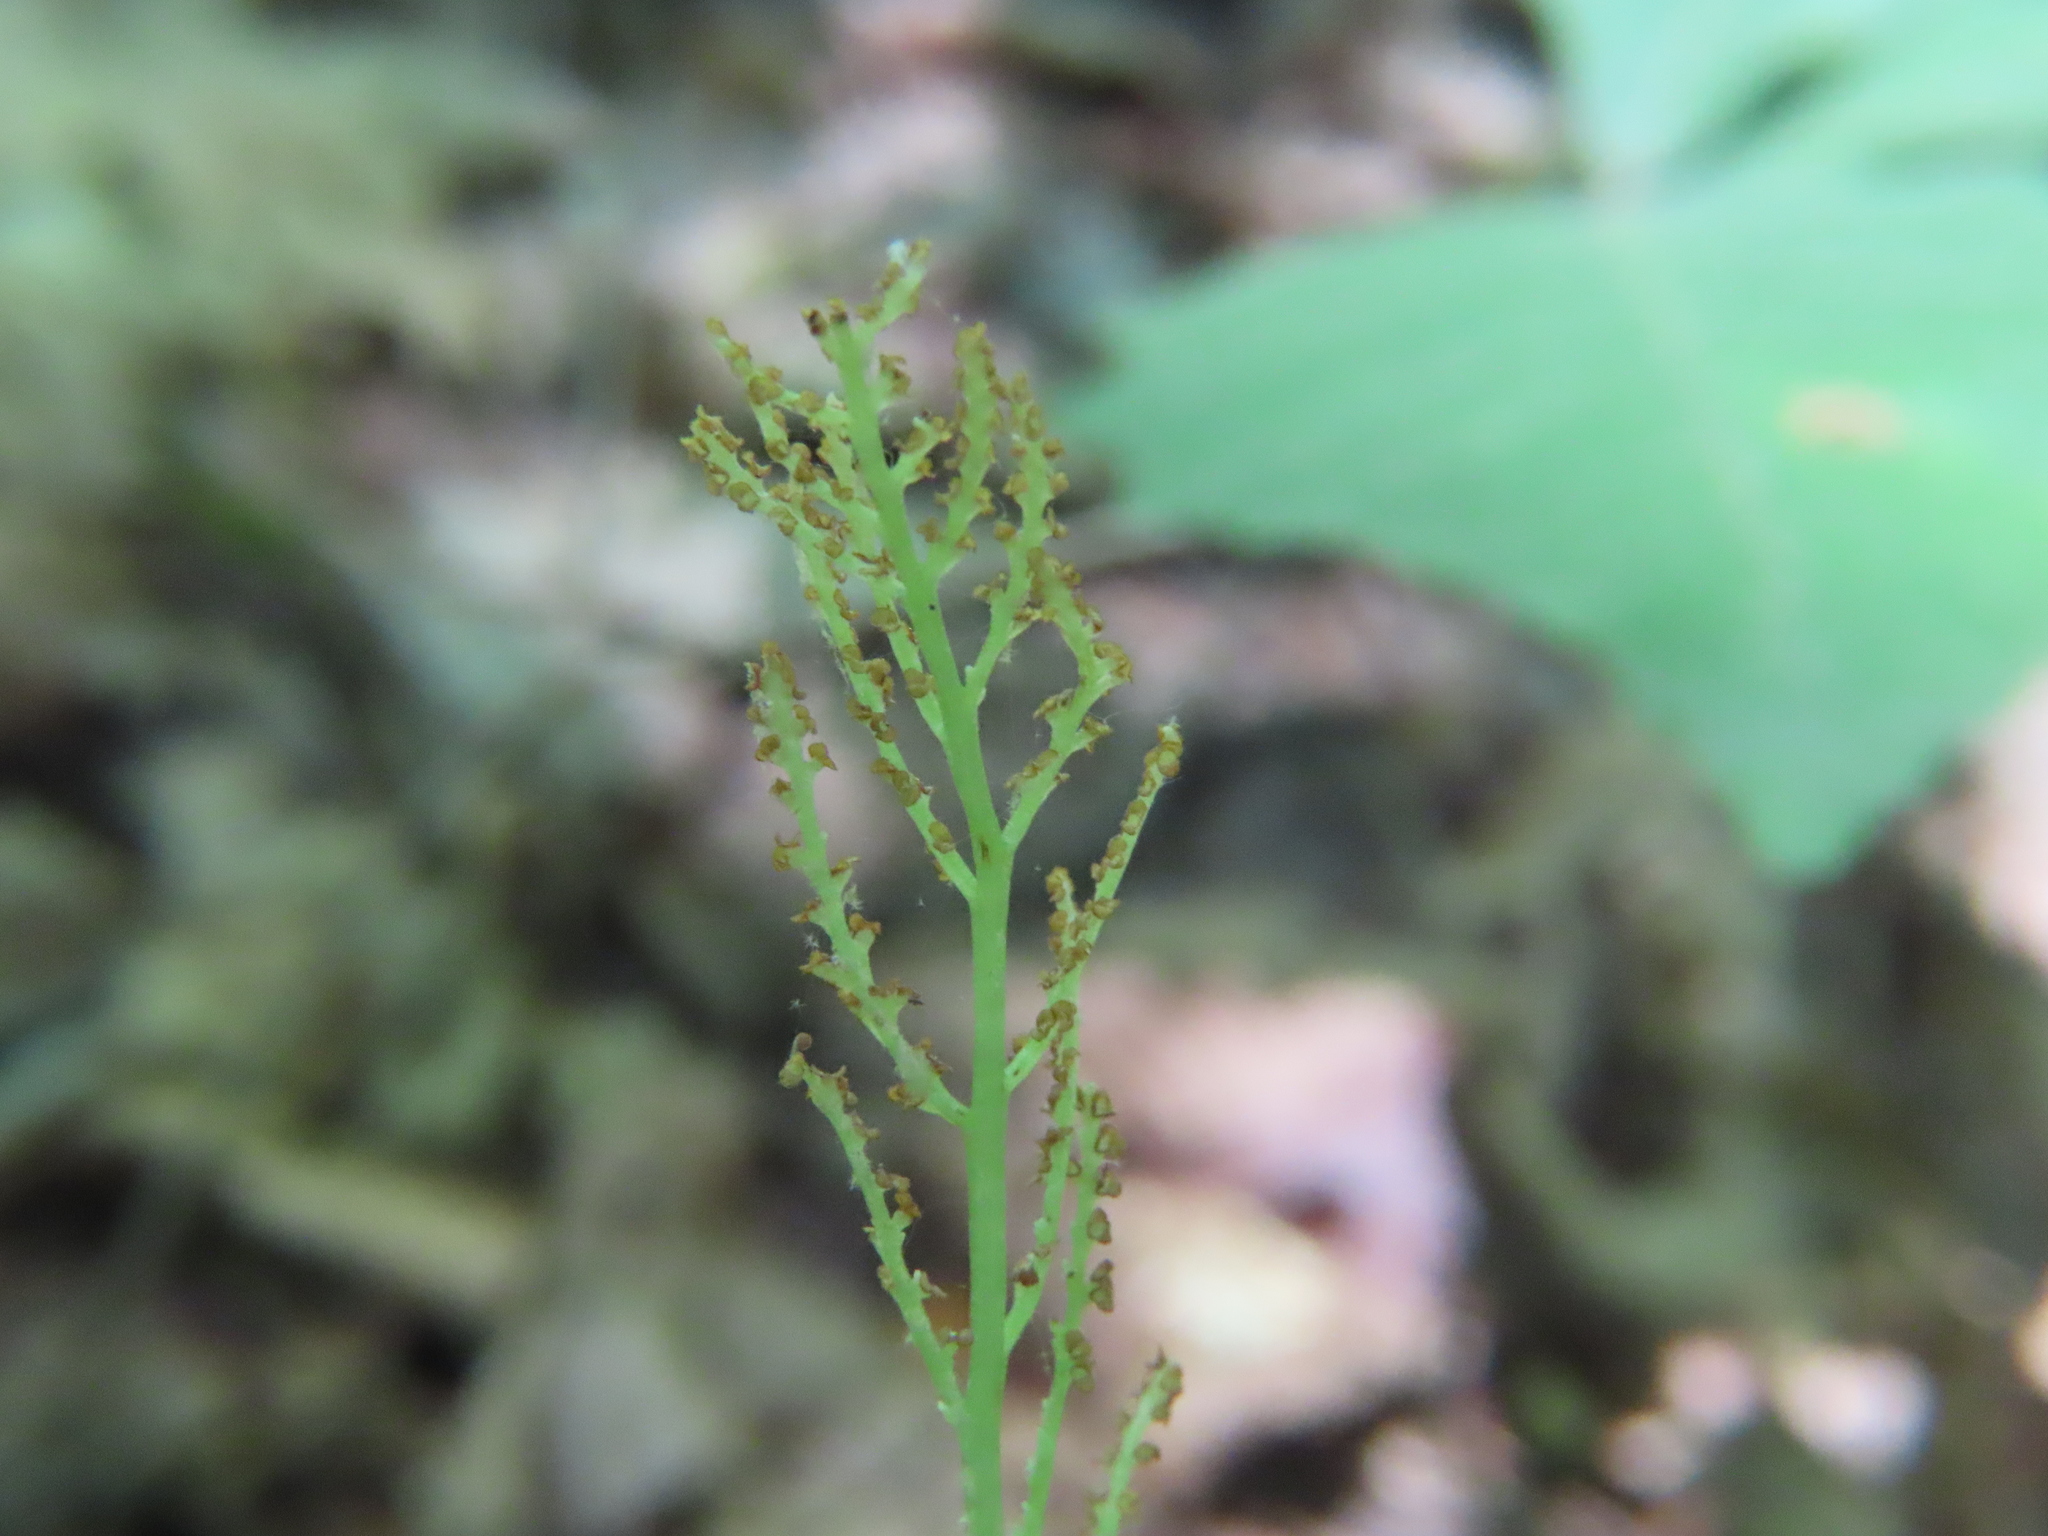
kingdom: Plantae
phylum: Tracheophyta
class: Polypodiopsida
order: Ophioglossales
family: Ophioglossaceae
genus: Botrypus
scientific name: Botrypus virginianus
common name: Common grapefern
